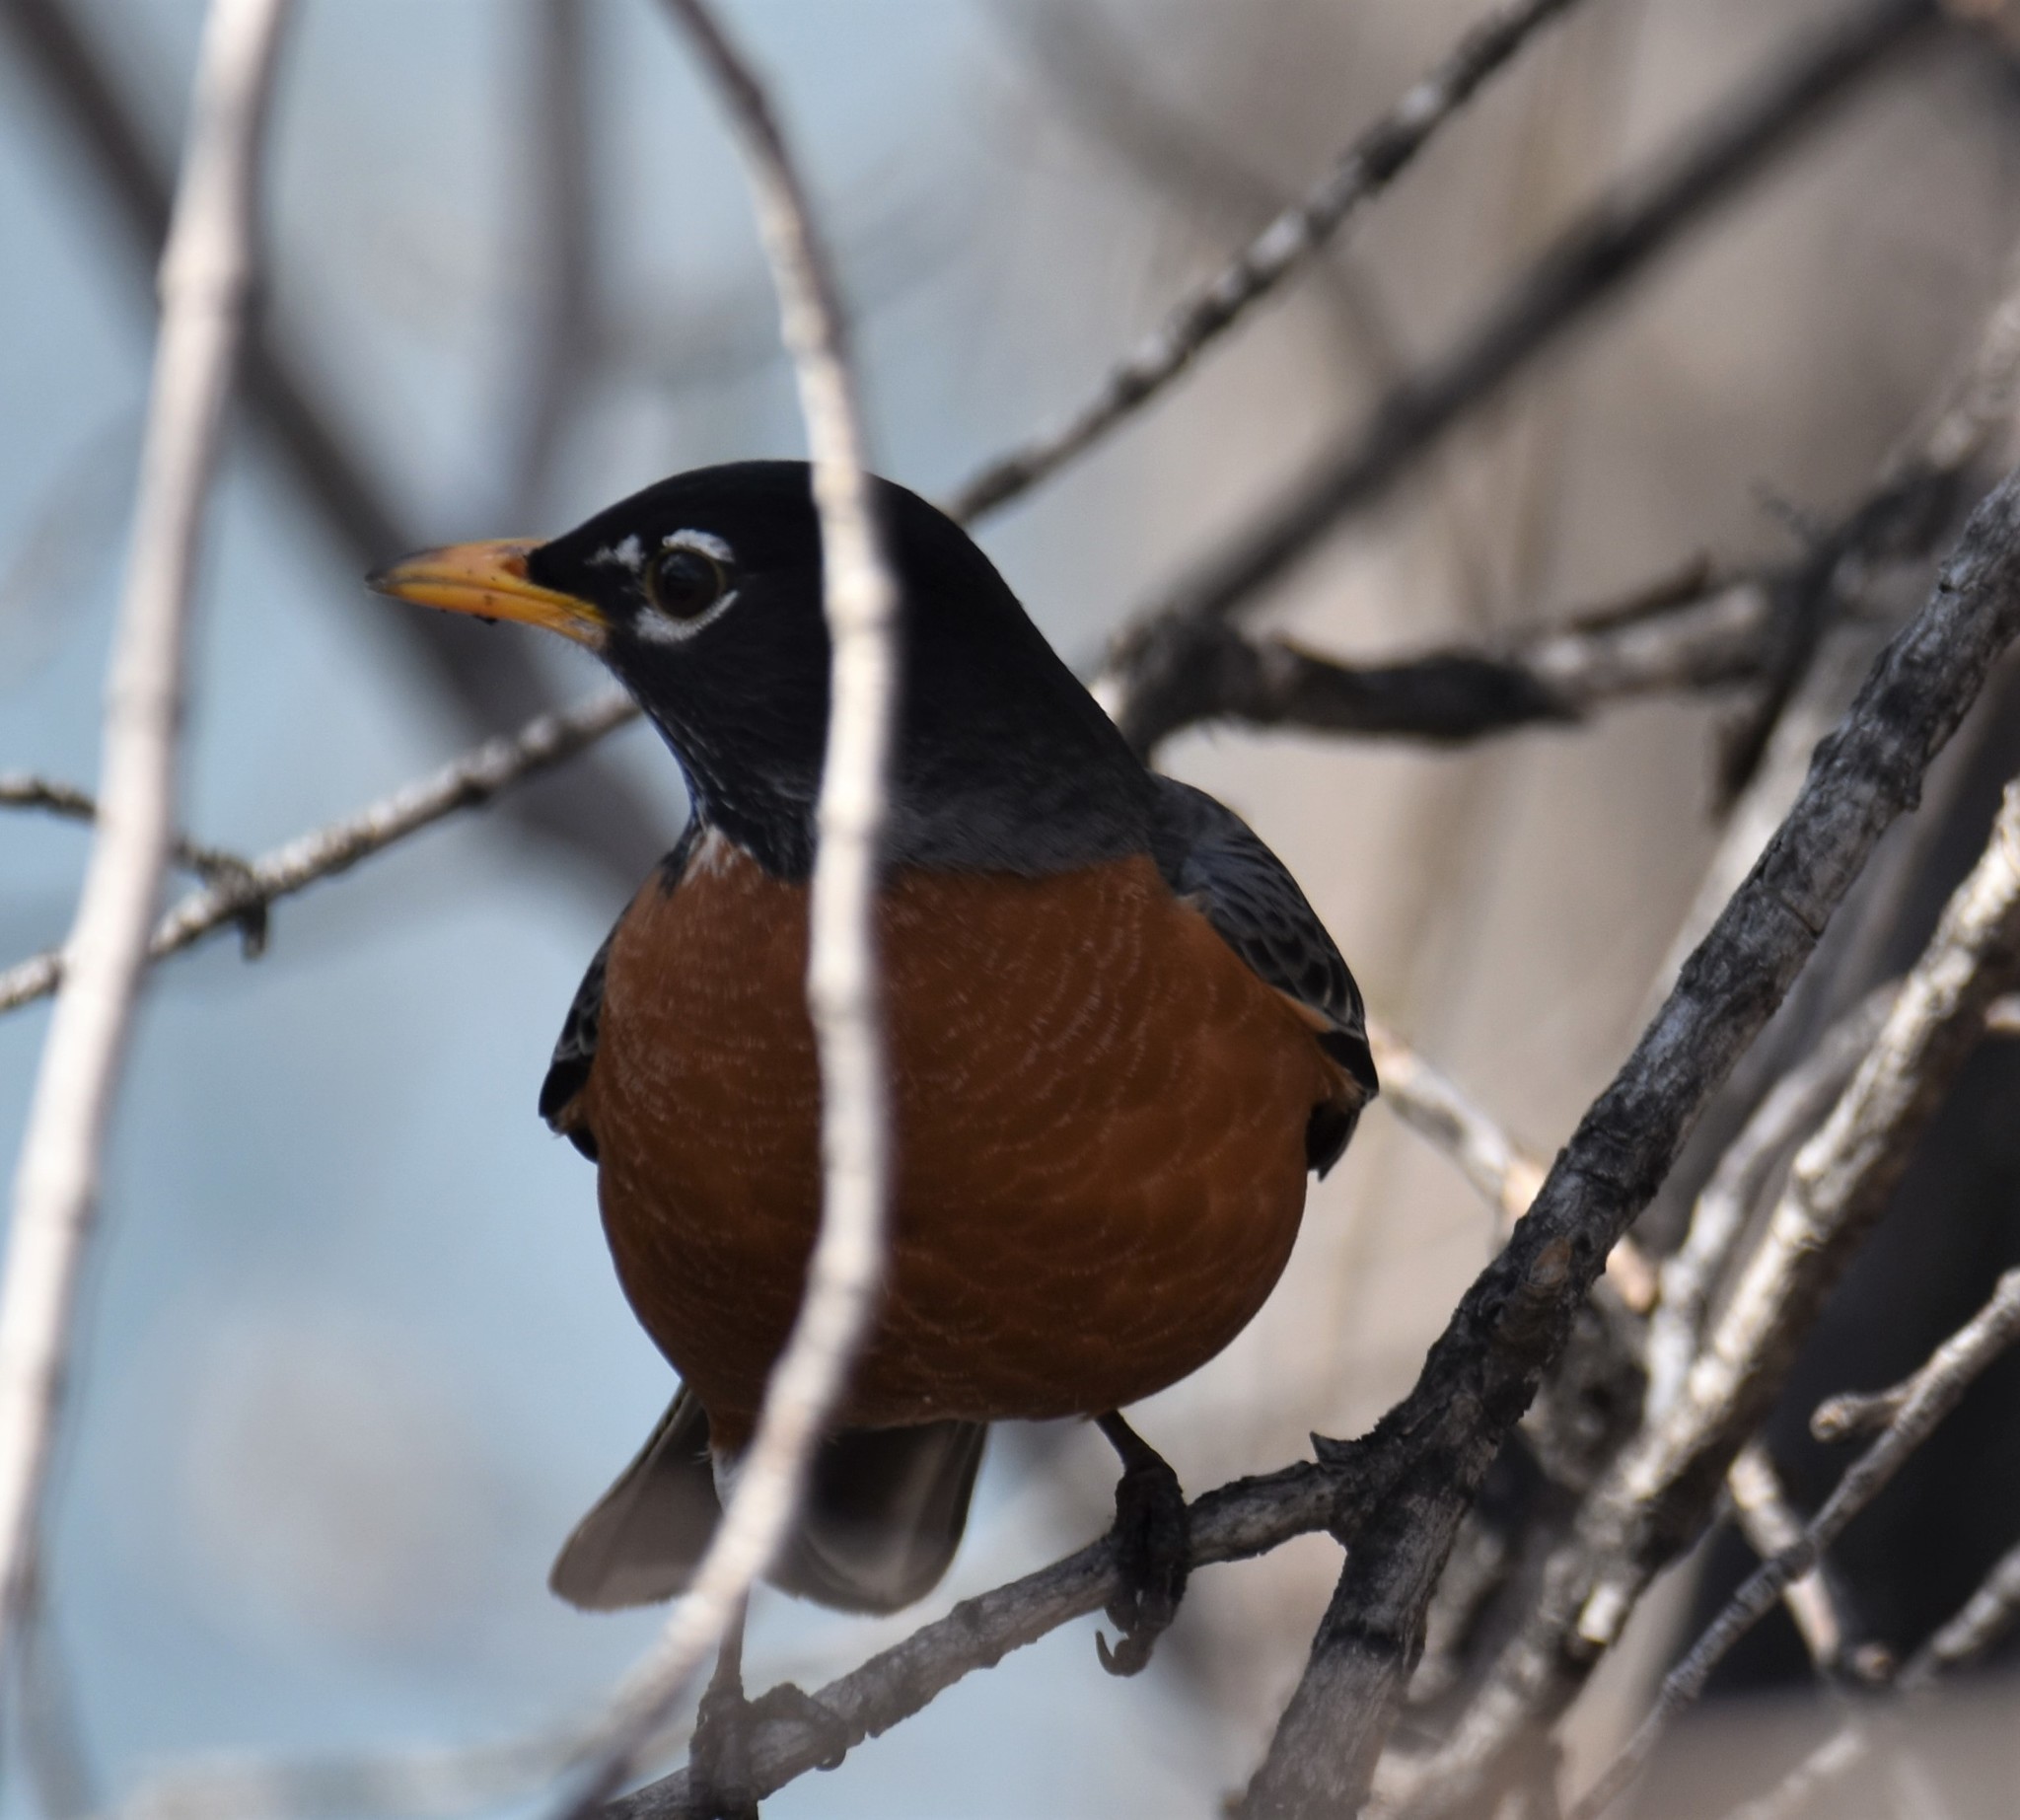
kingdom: Animalia
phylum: Chordata
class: Aves
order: Passeriformes
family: Turdidae
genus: Turdus
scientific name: Turdus migratorius
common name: American robin
